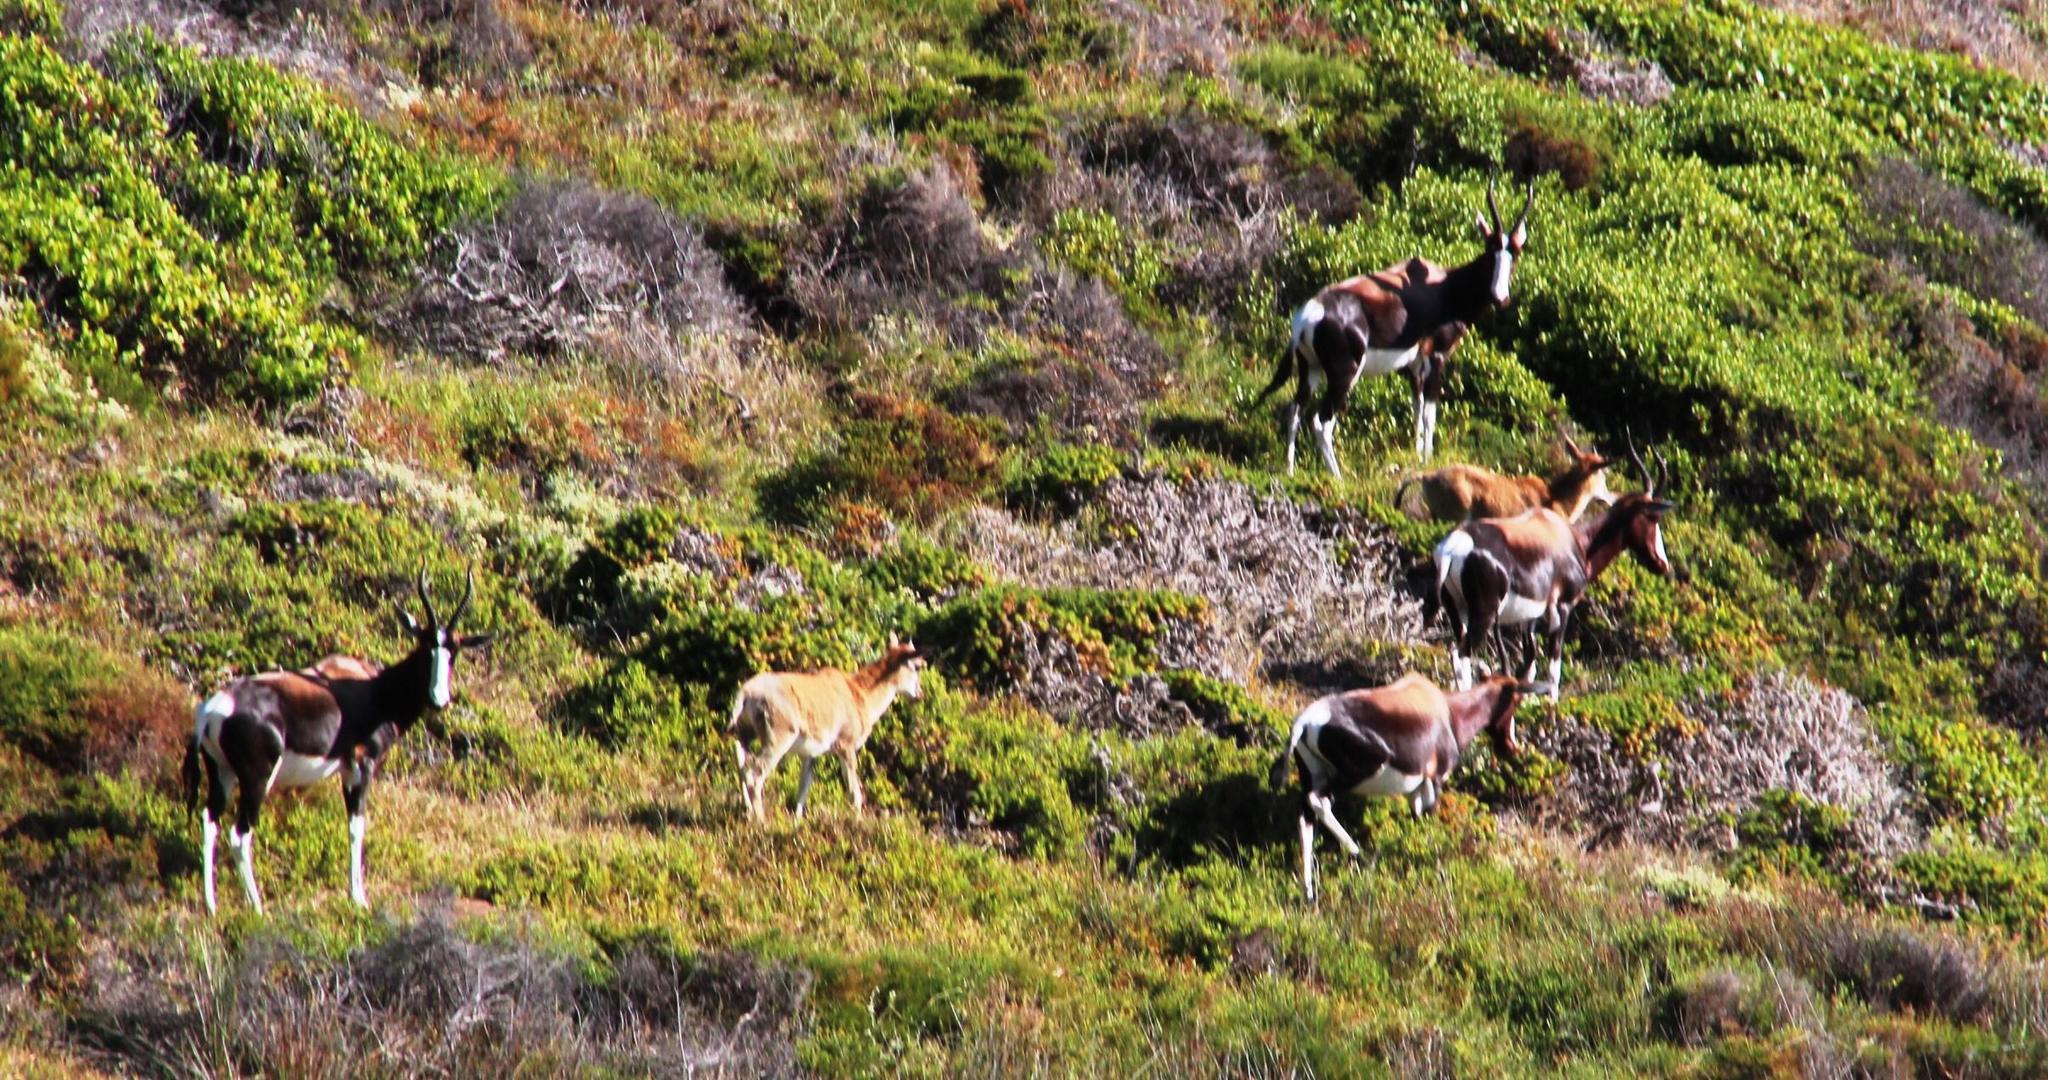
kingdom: Animalia
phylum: Chordata
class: Mammalia
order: Artiodactyla
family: Bovidae
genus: Damaliscus
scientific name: Damaliscus pygargus
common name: Bontebok
